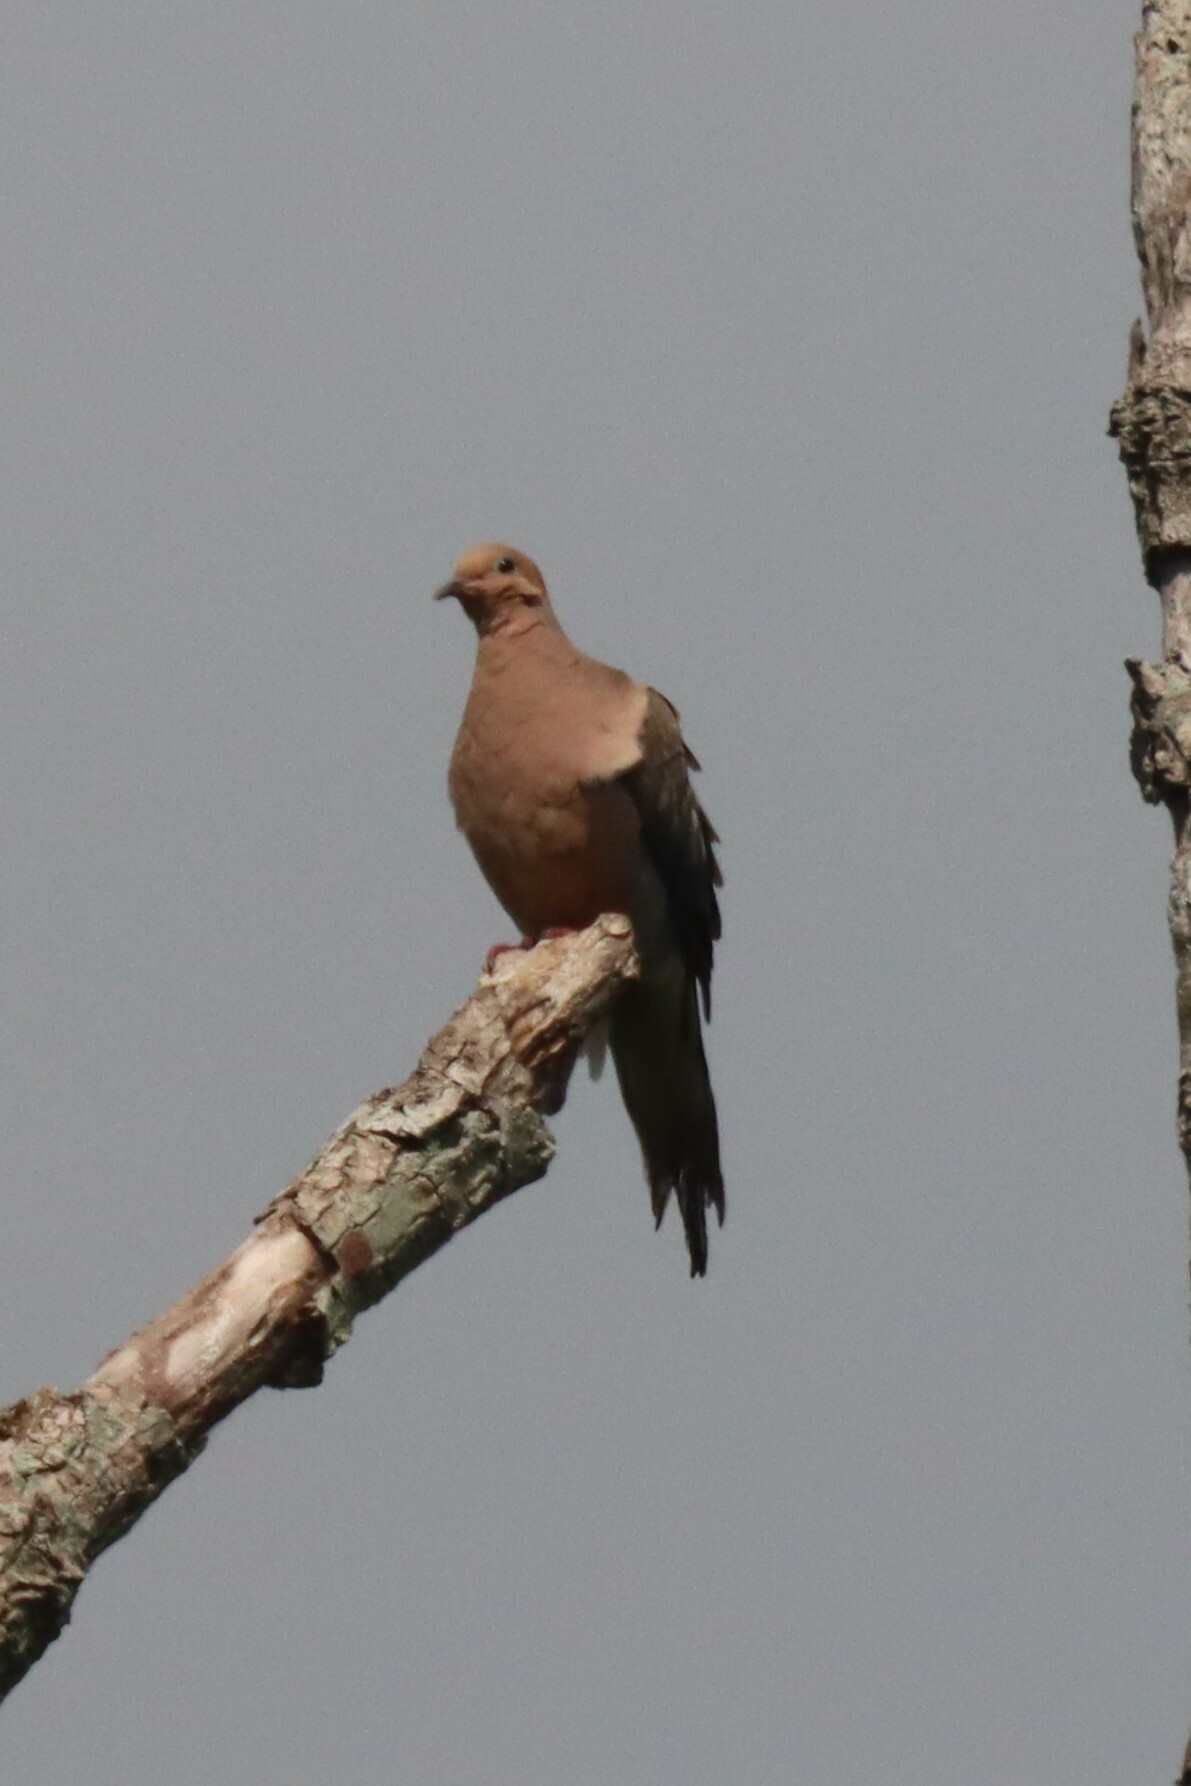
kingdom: Animalia
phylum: Chordata
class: Aves
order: Columbiformes
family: Columbidae
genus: Zenaida
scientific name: Zenaida macroura
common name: Mourning dove
